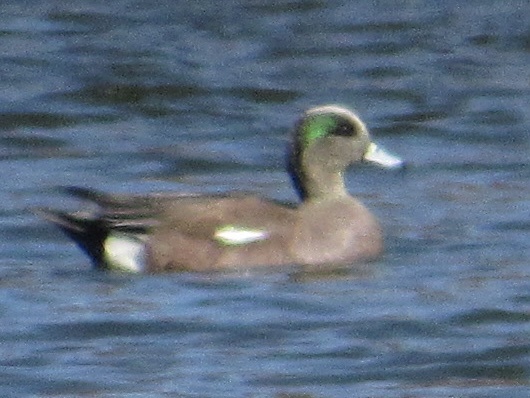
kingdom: Animalia
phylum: Chordata
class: Aves
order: Anseriformes
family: Anatidae
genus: Mareca
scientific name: Mareca americana
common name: American wigeon
